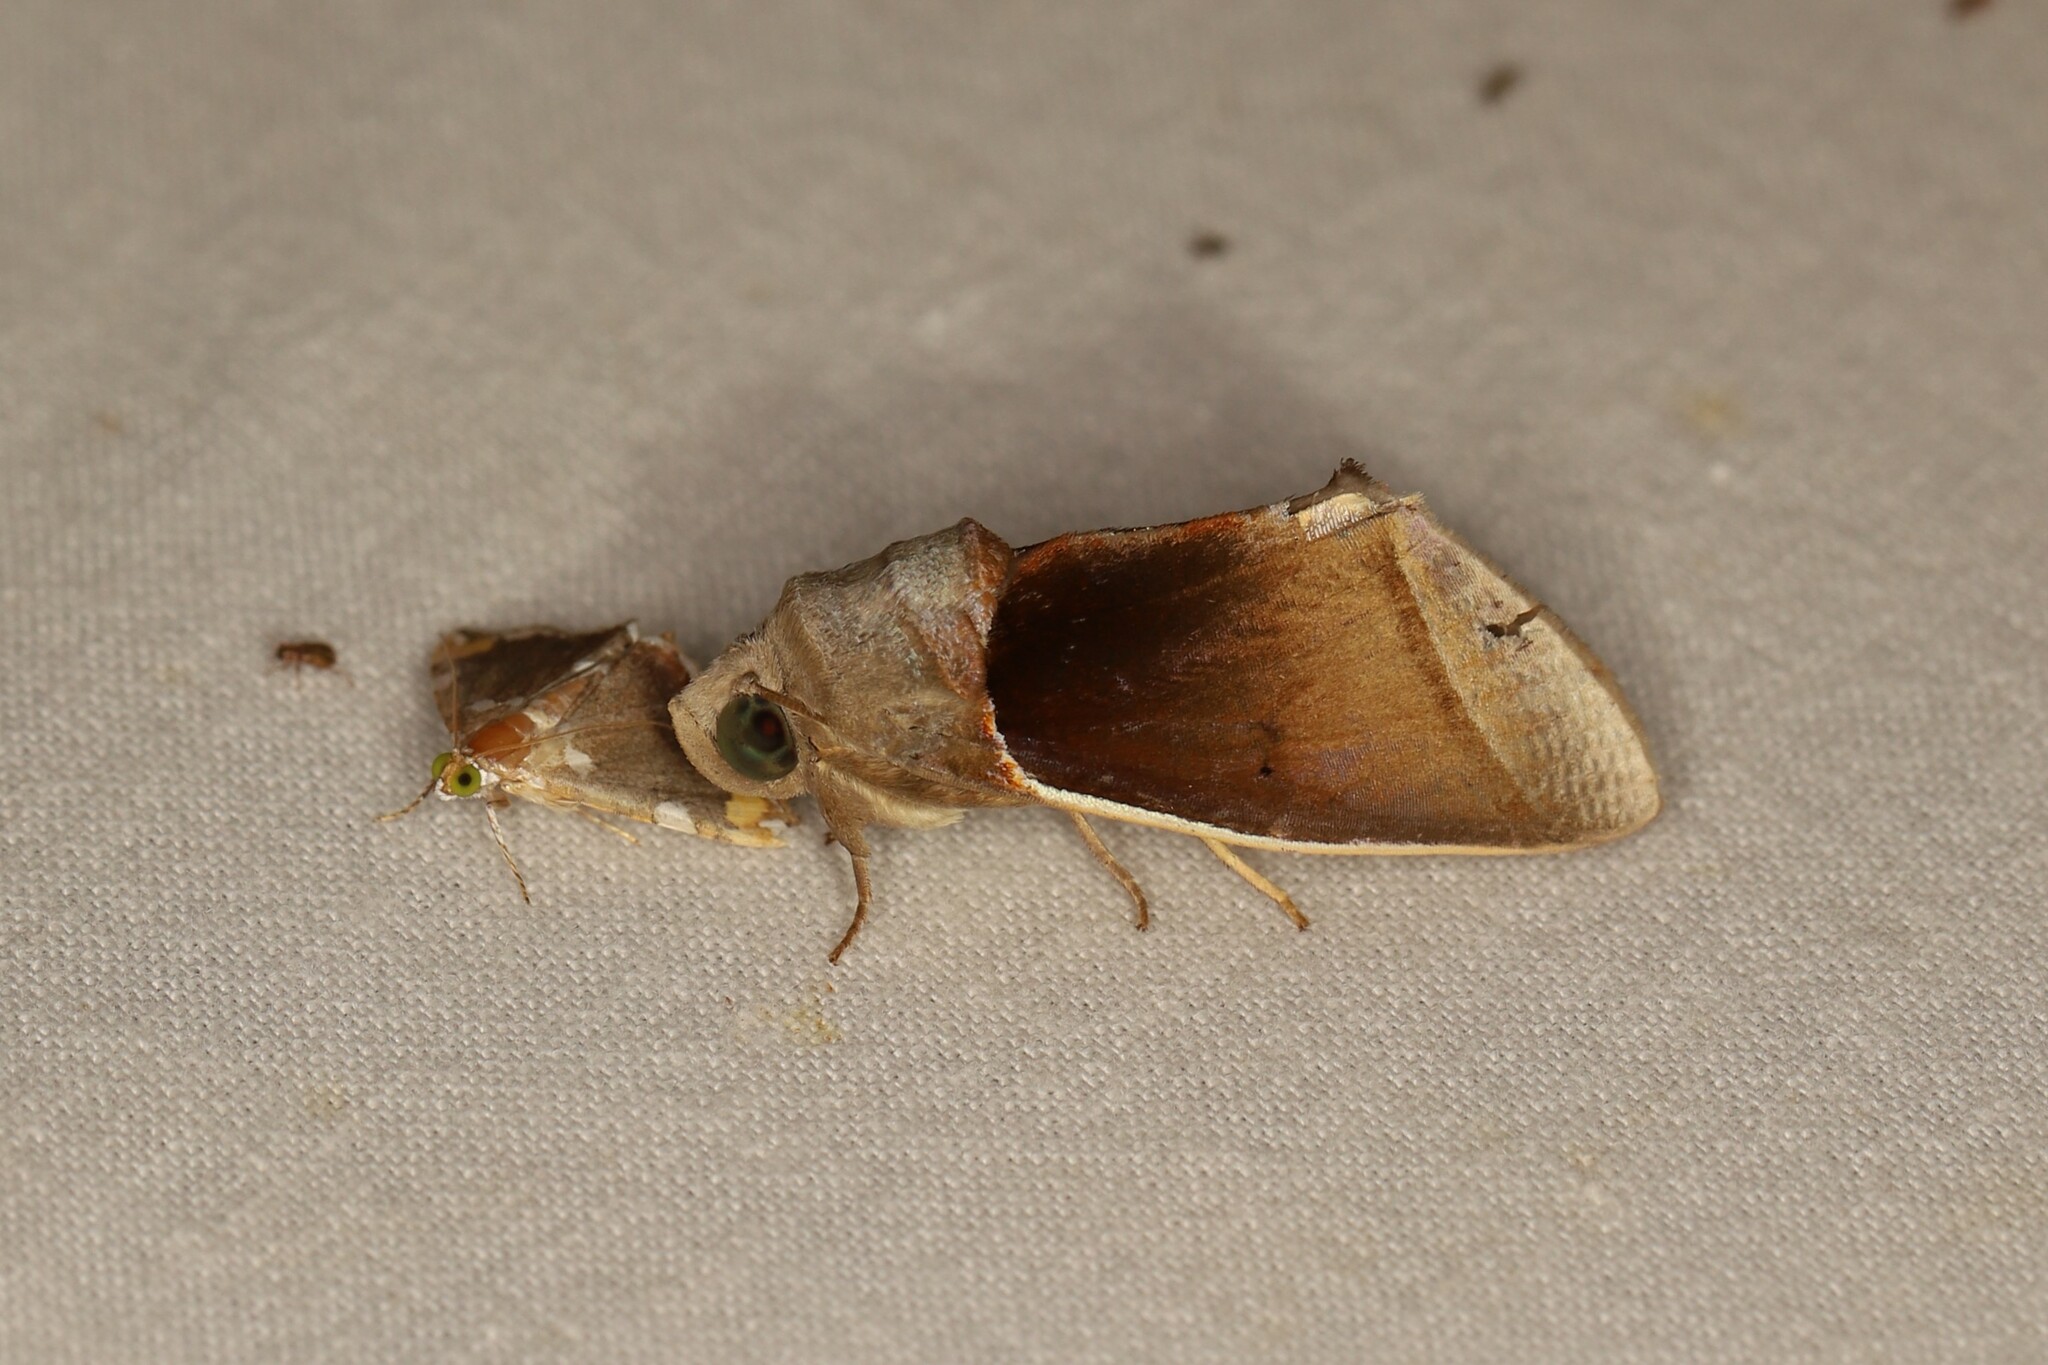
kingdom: Animalia
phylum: Arthropoda
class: Insecta
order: Lepidoptera
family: Erebidae
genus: Gonodonta
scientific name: Gonodonta sicheas
